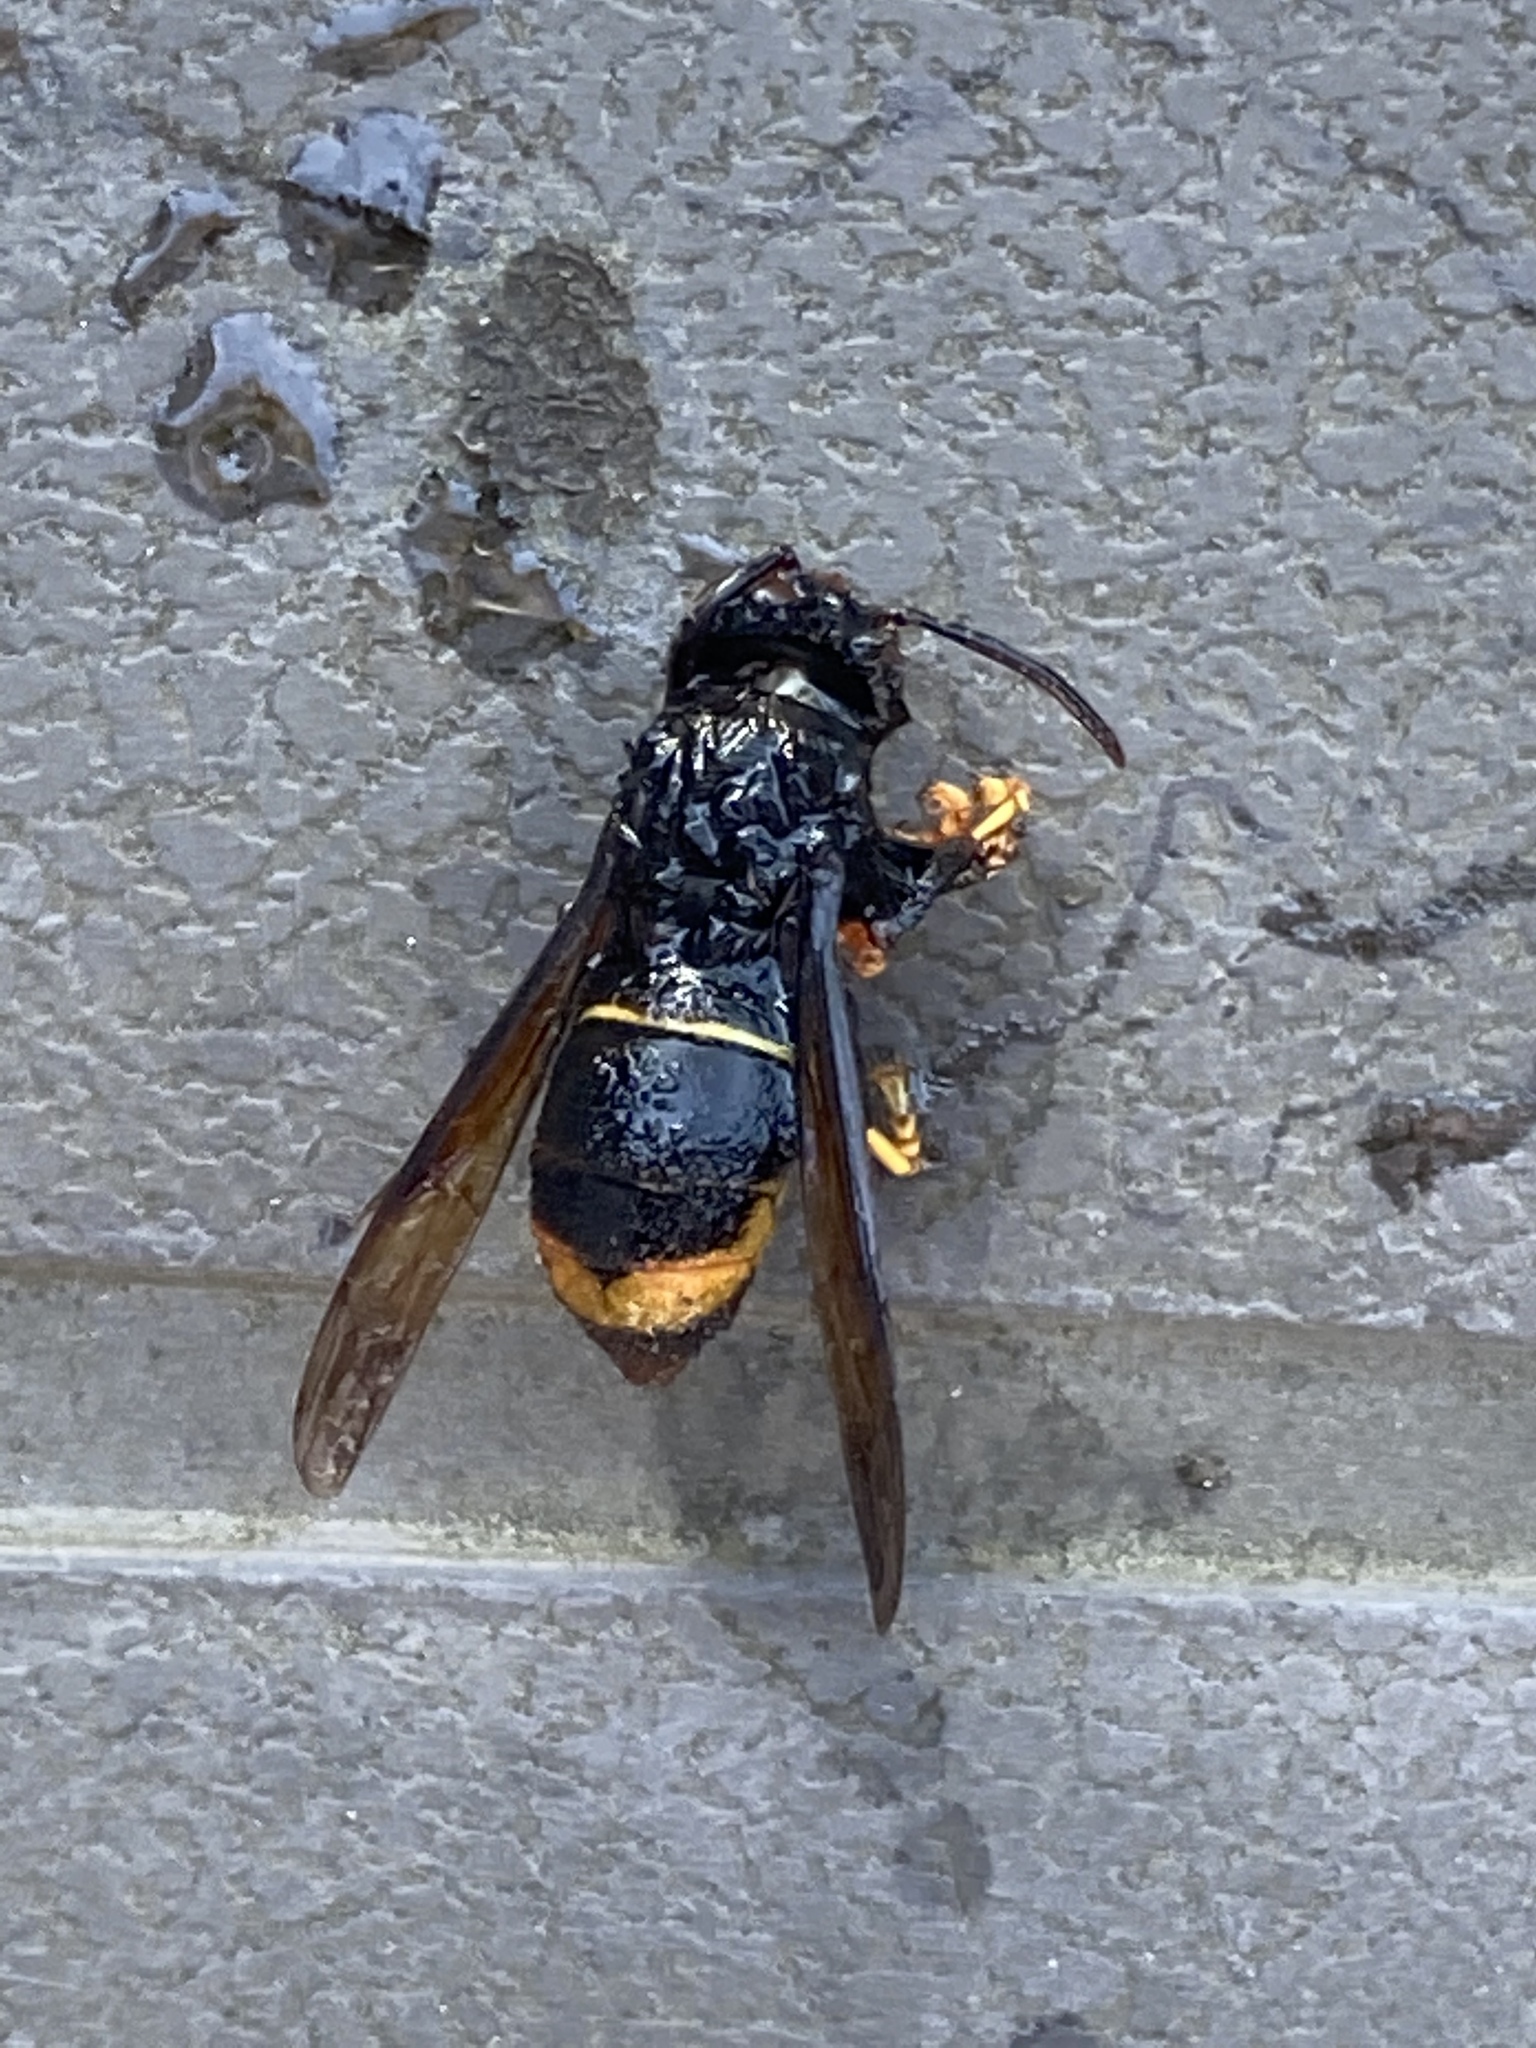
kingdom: Animalia
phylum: Arthropoda
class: Insecta
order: Hymenoptera
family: Vespidae
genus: Vespa
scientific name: Vespa velutina
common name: Asian hornet
